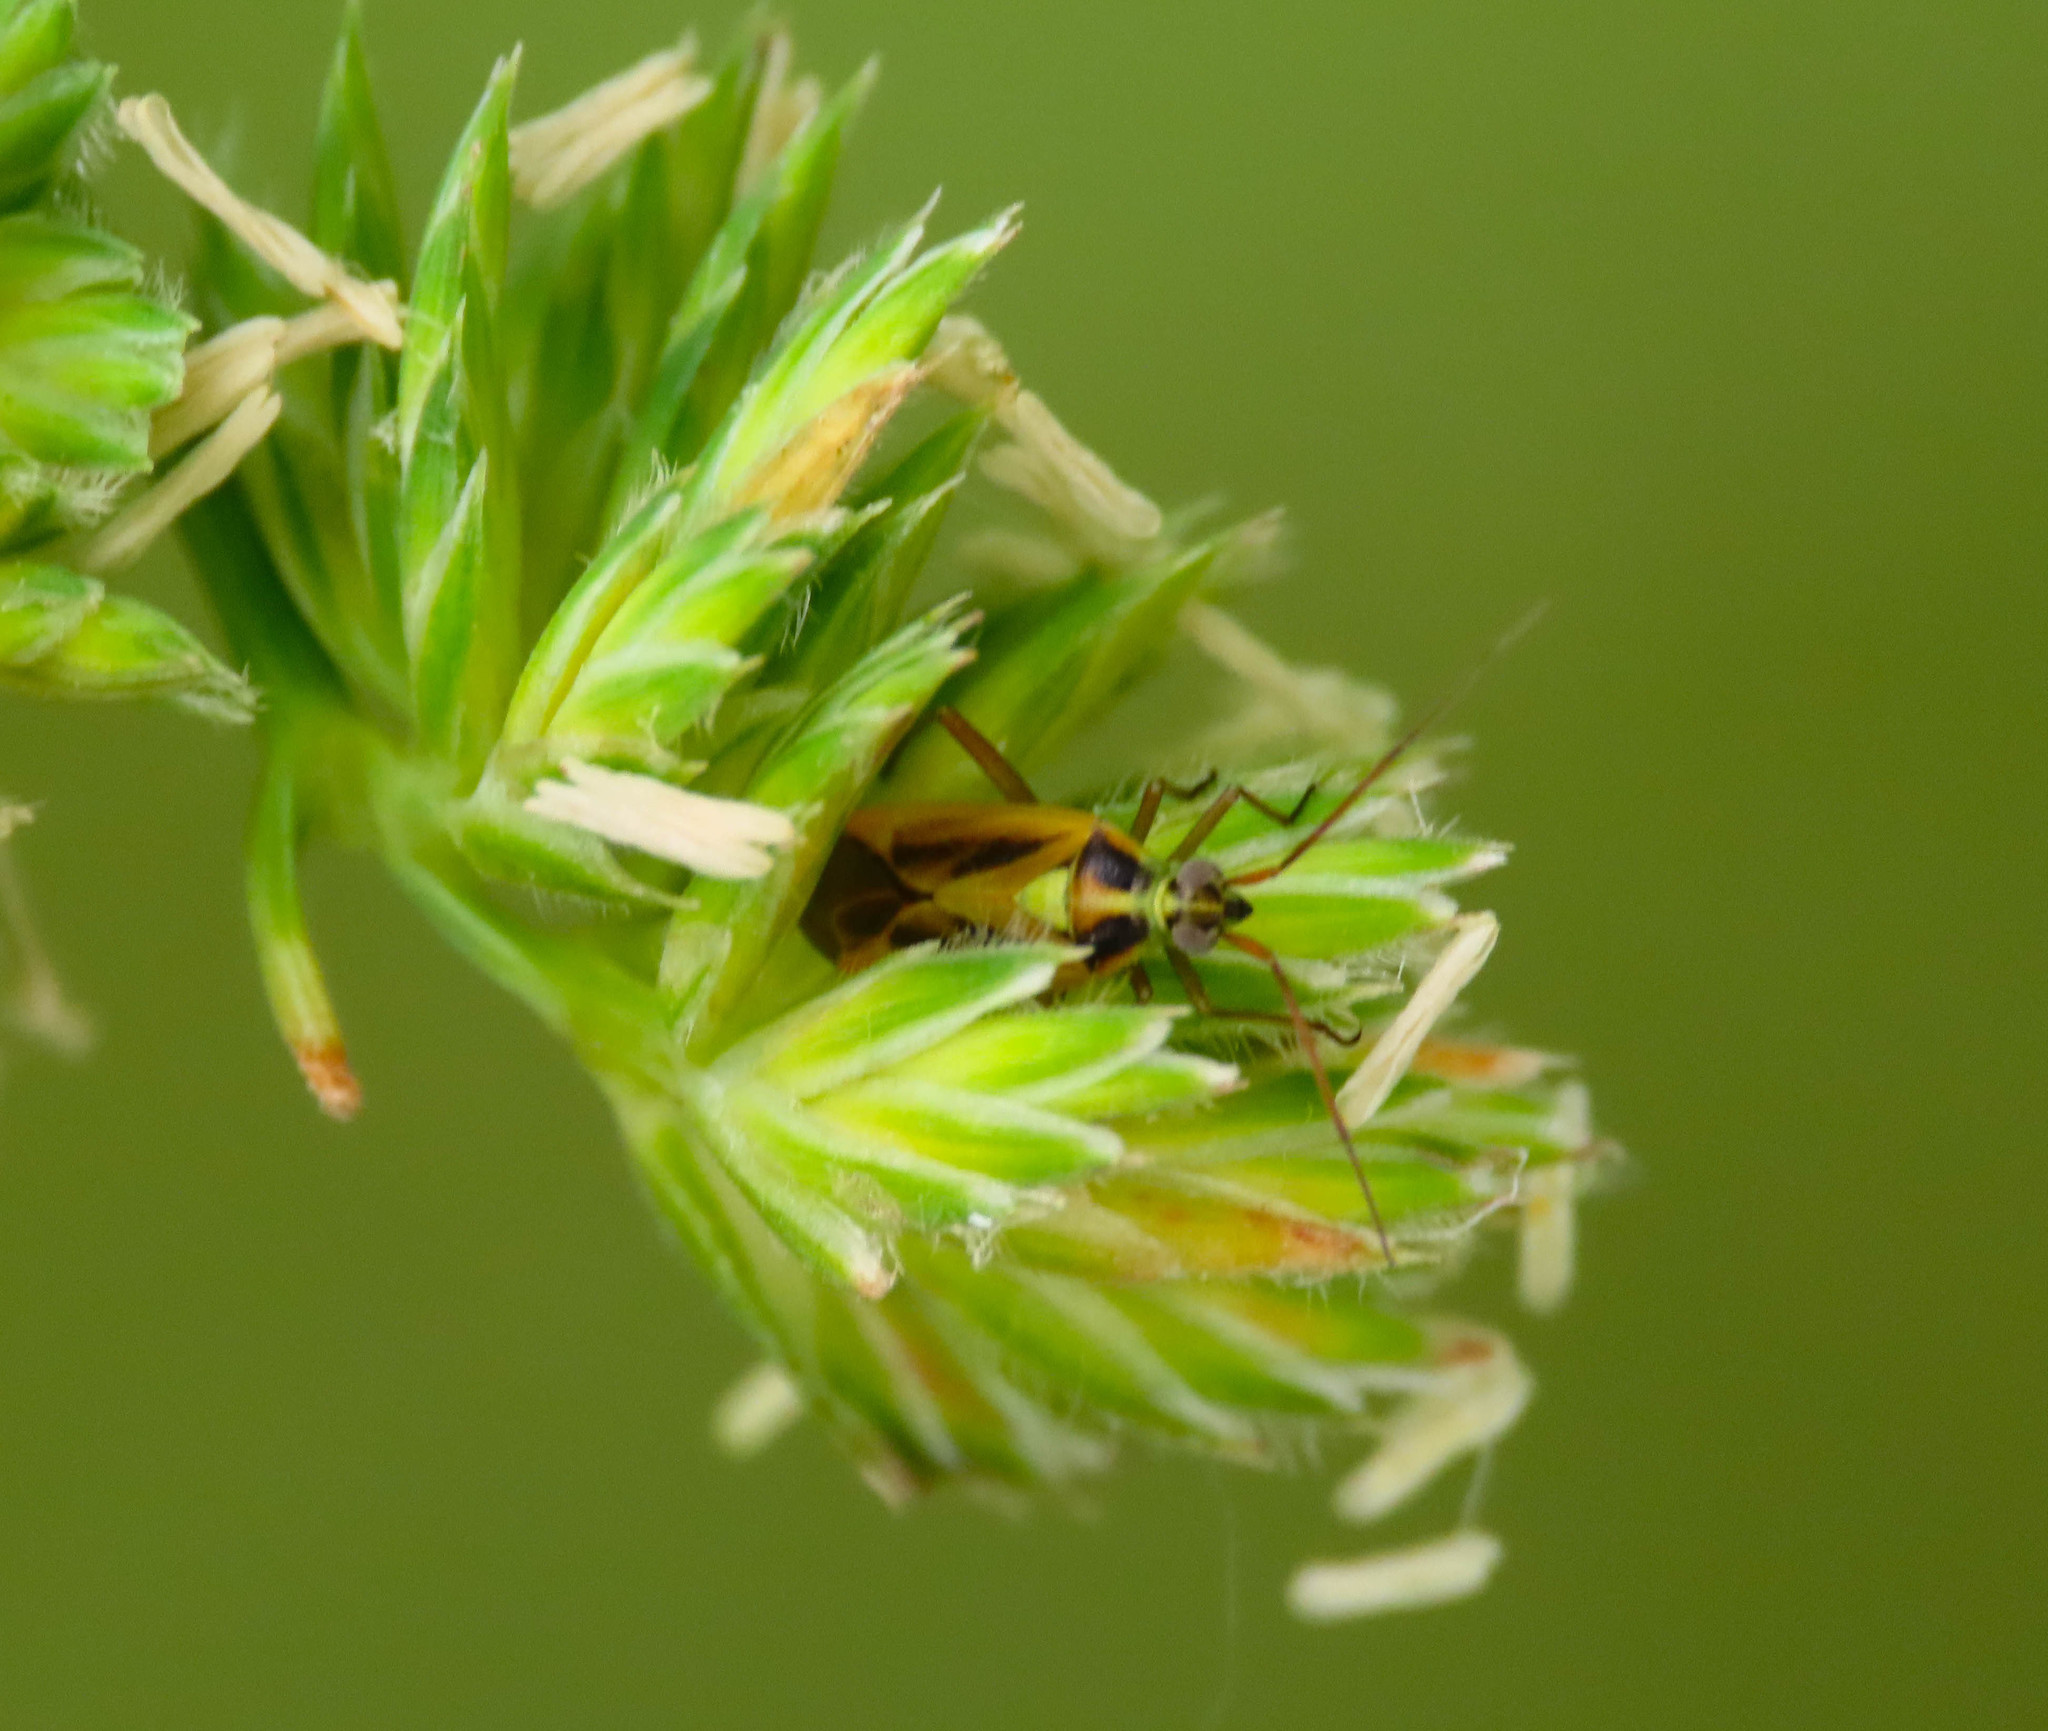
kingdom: Animalia
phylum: Arthropoda
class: Insecta
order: Hemiptera
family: Miridae
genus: Stenotus
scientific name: Stenotus binotatus
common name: Plant bug
